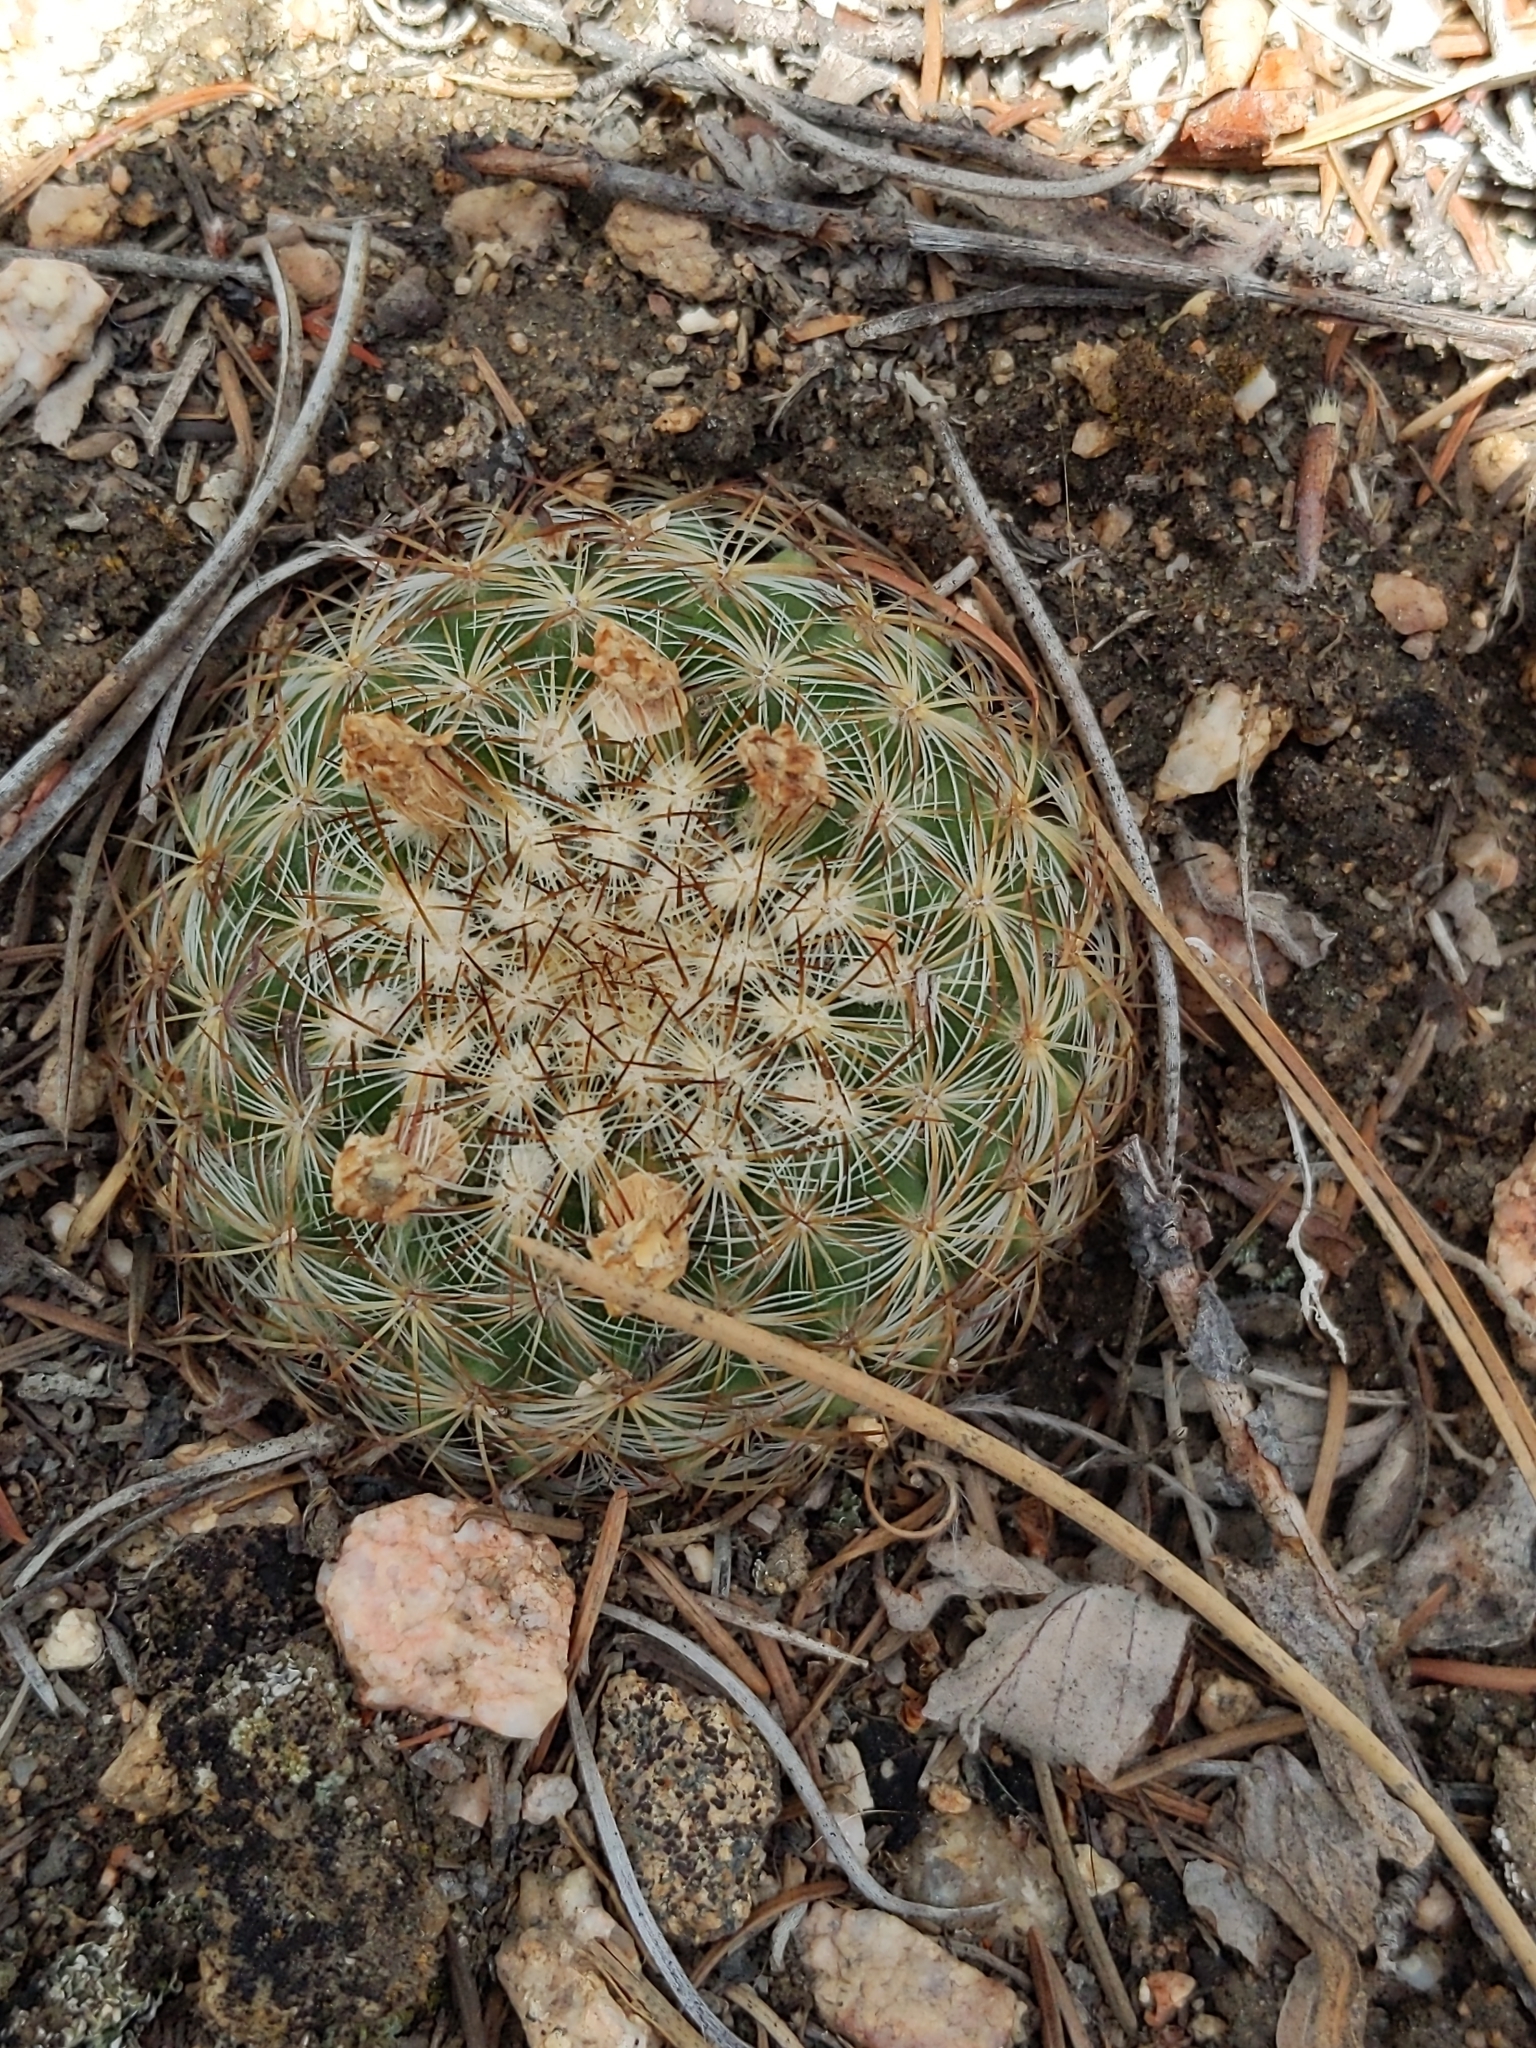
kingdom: Plantae
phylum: Tracheophyta
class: Magnoliopsida
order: Caryophyllales
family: Cactaceae
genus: Pediocactus
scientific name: Pediocactus simpsonii
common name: Simpson's hedgehog cactus
